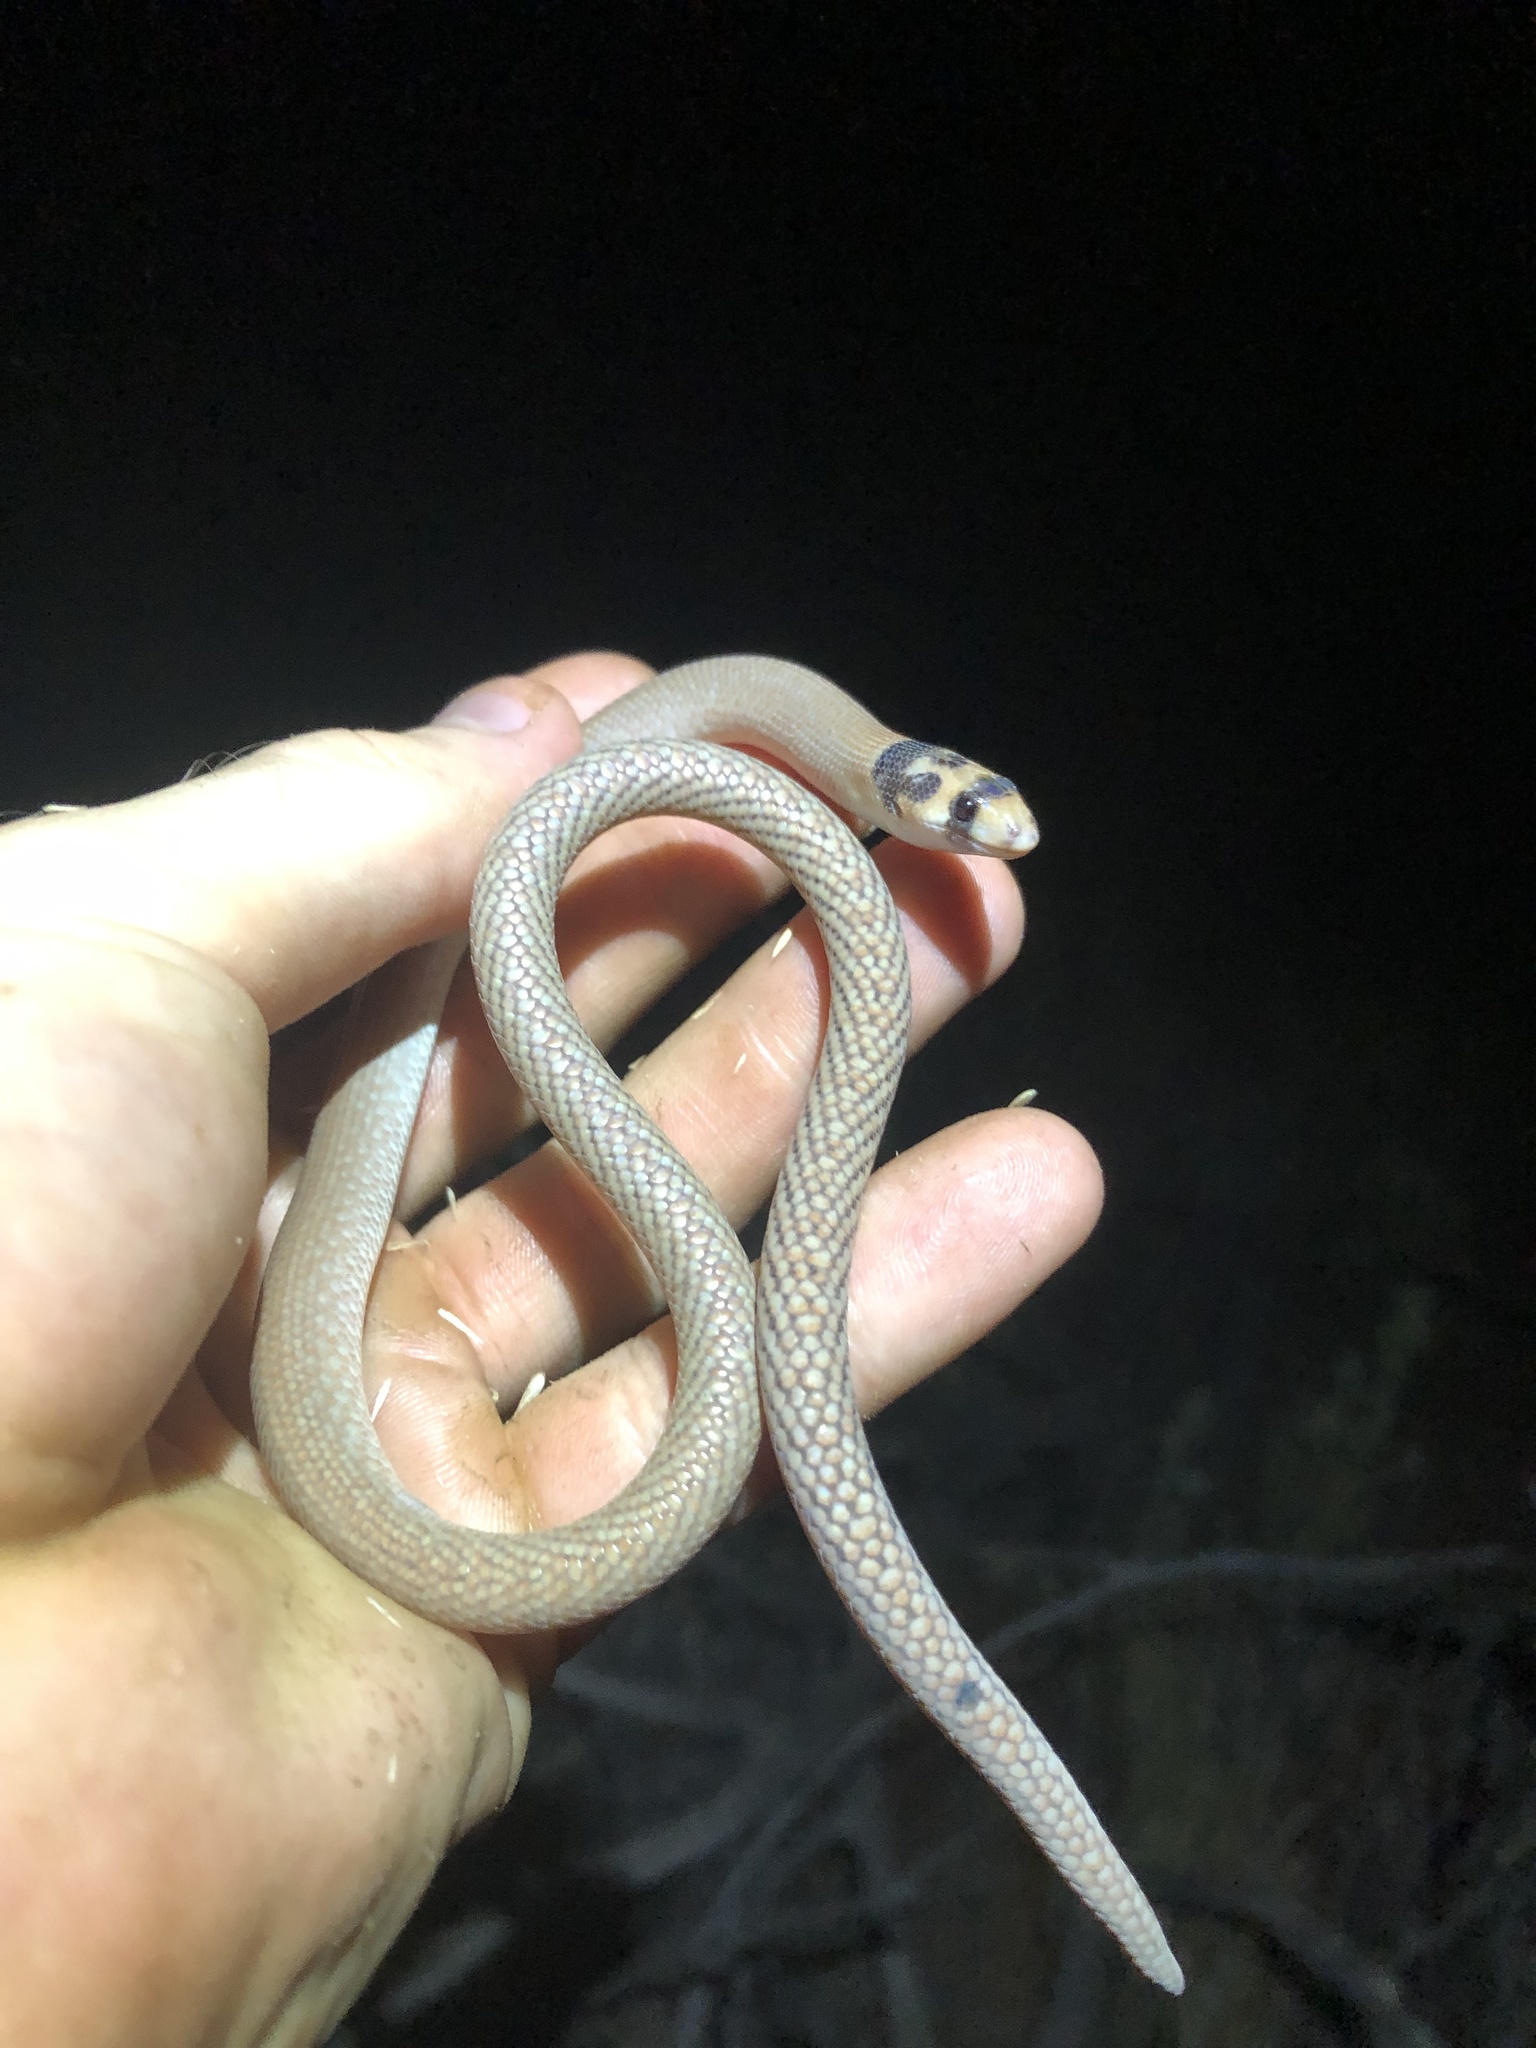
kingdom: Animalia
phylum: Chordata
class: Squamata
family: Pygopodidae
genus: Pygopus
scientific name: Pygopus nigriceps
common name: Black-headed scaly foot
